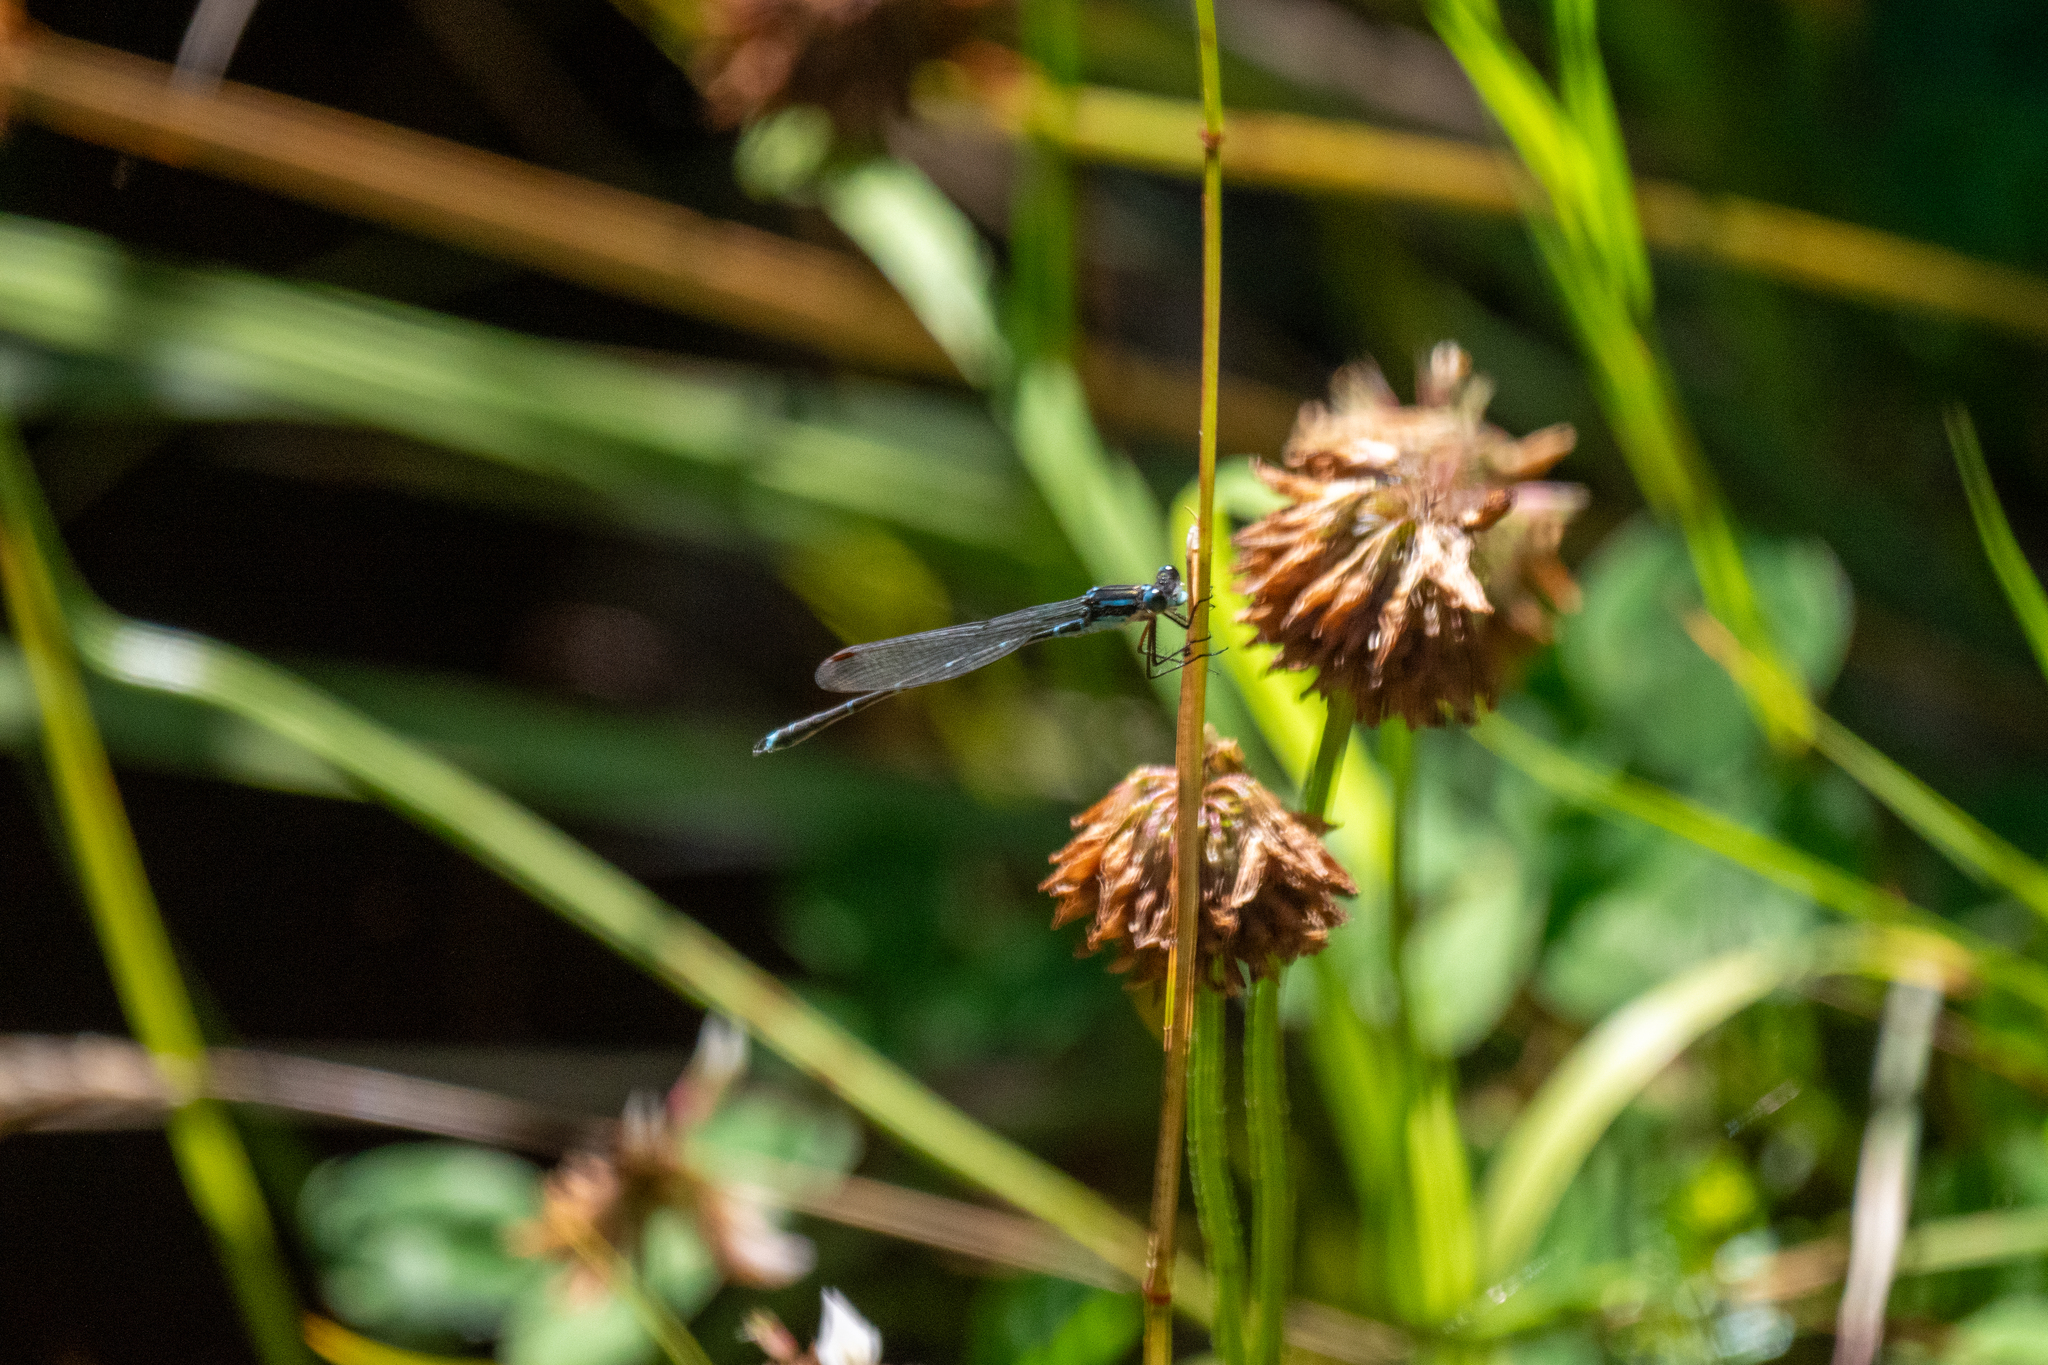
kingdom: Animalia
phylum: Arthropoda
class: Insecta
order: Odonata
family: Lestidae
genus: Austrolestes
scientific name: Austrolestes colensonis
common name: Blue damselfly
